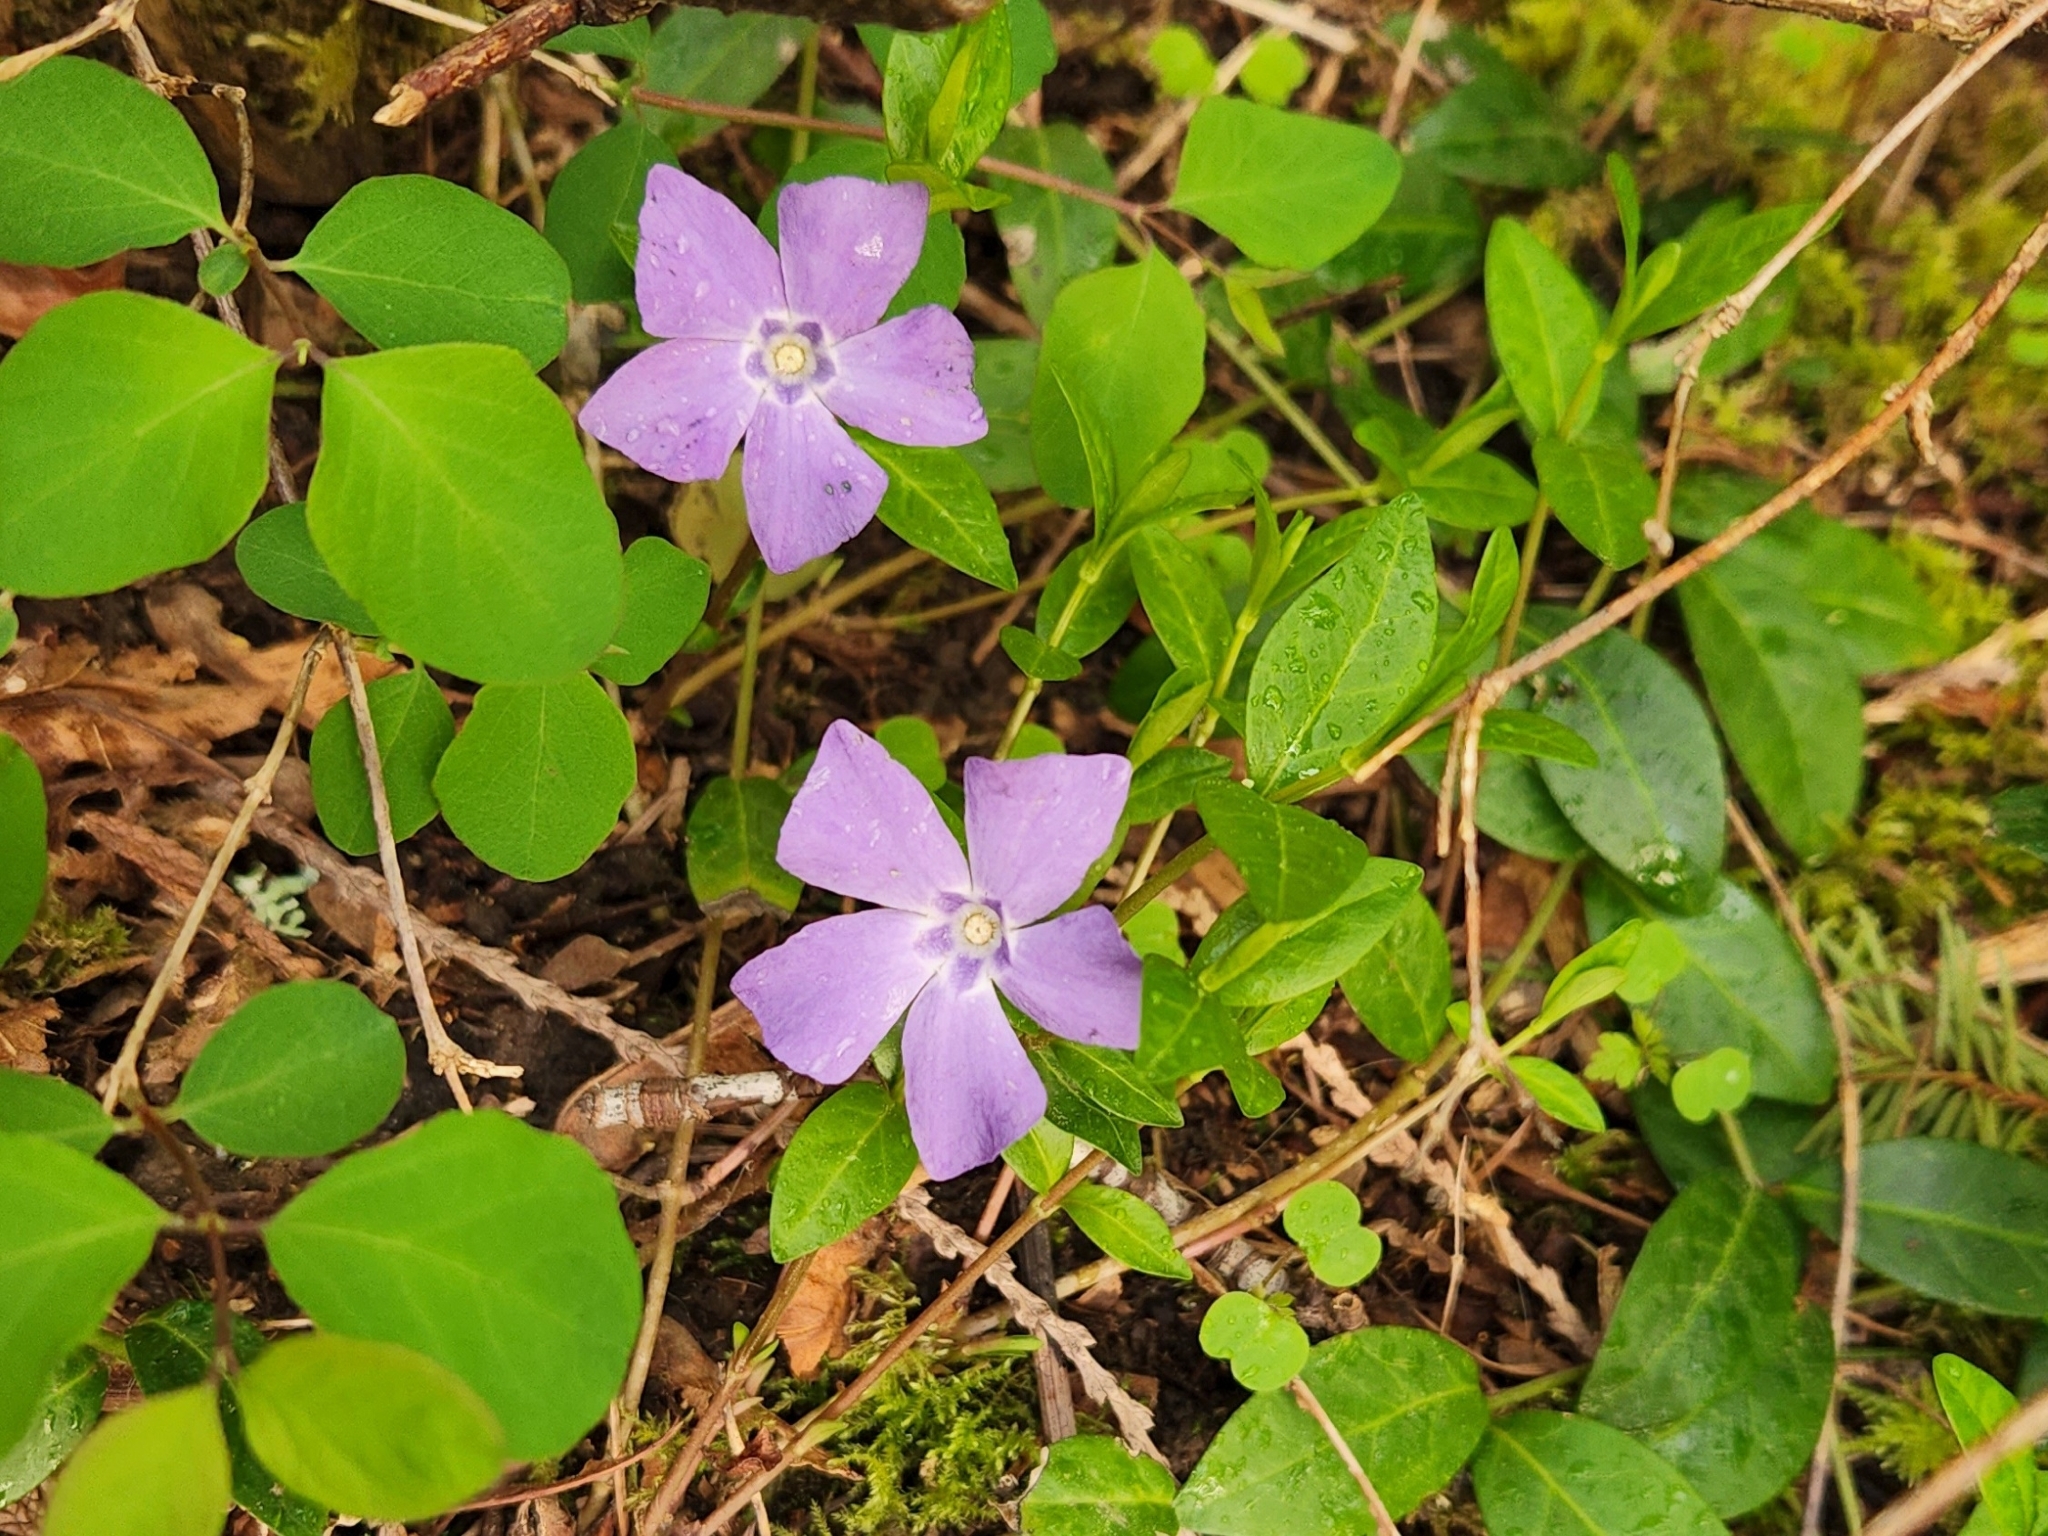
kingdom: Plantae
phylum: Tracheophyta
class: Magnoliopsida
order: Gentianales
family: Apocynaceae
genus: Vinca
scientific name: Vinca minor
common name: Lesser periwinkle
